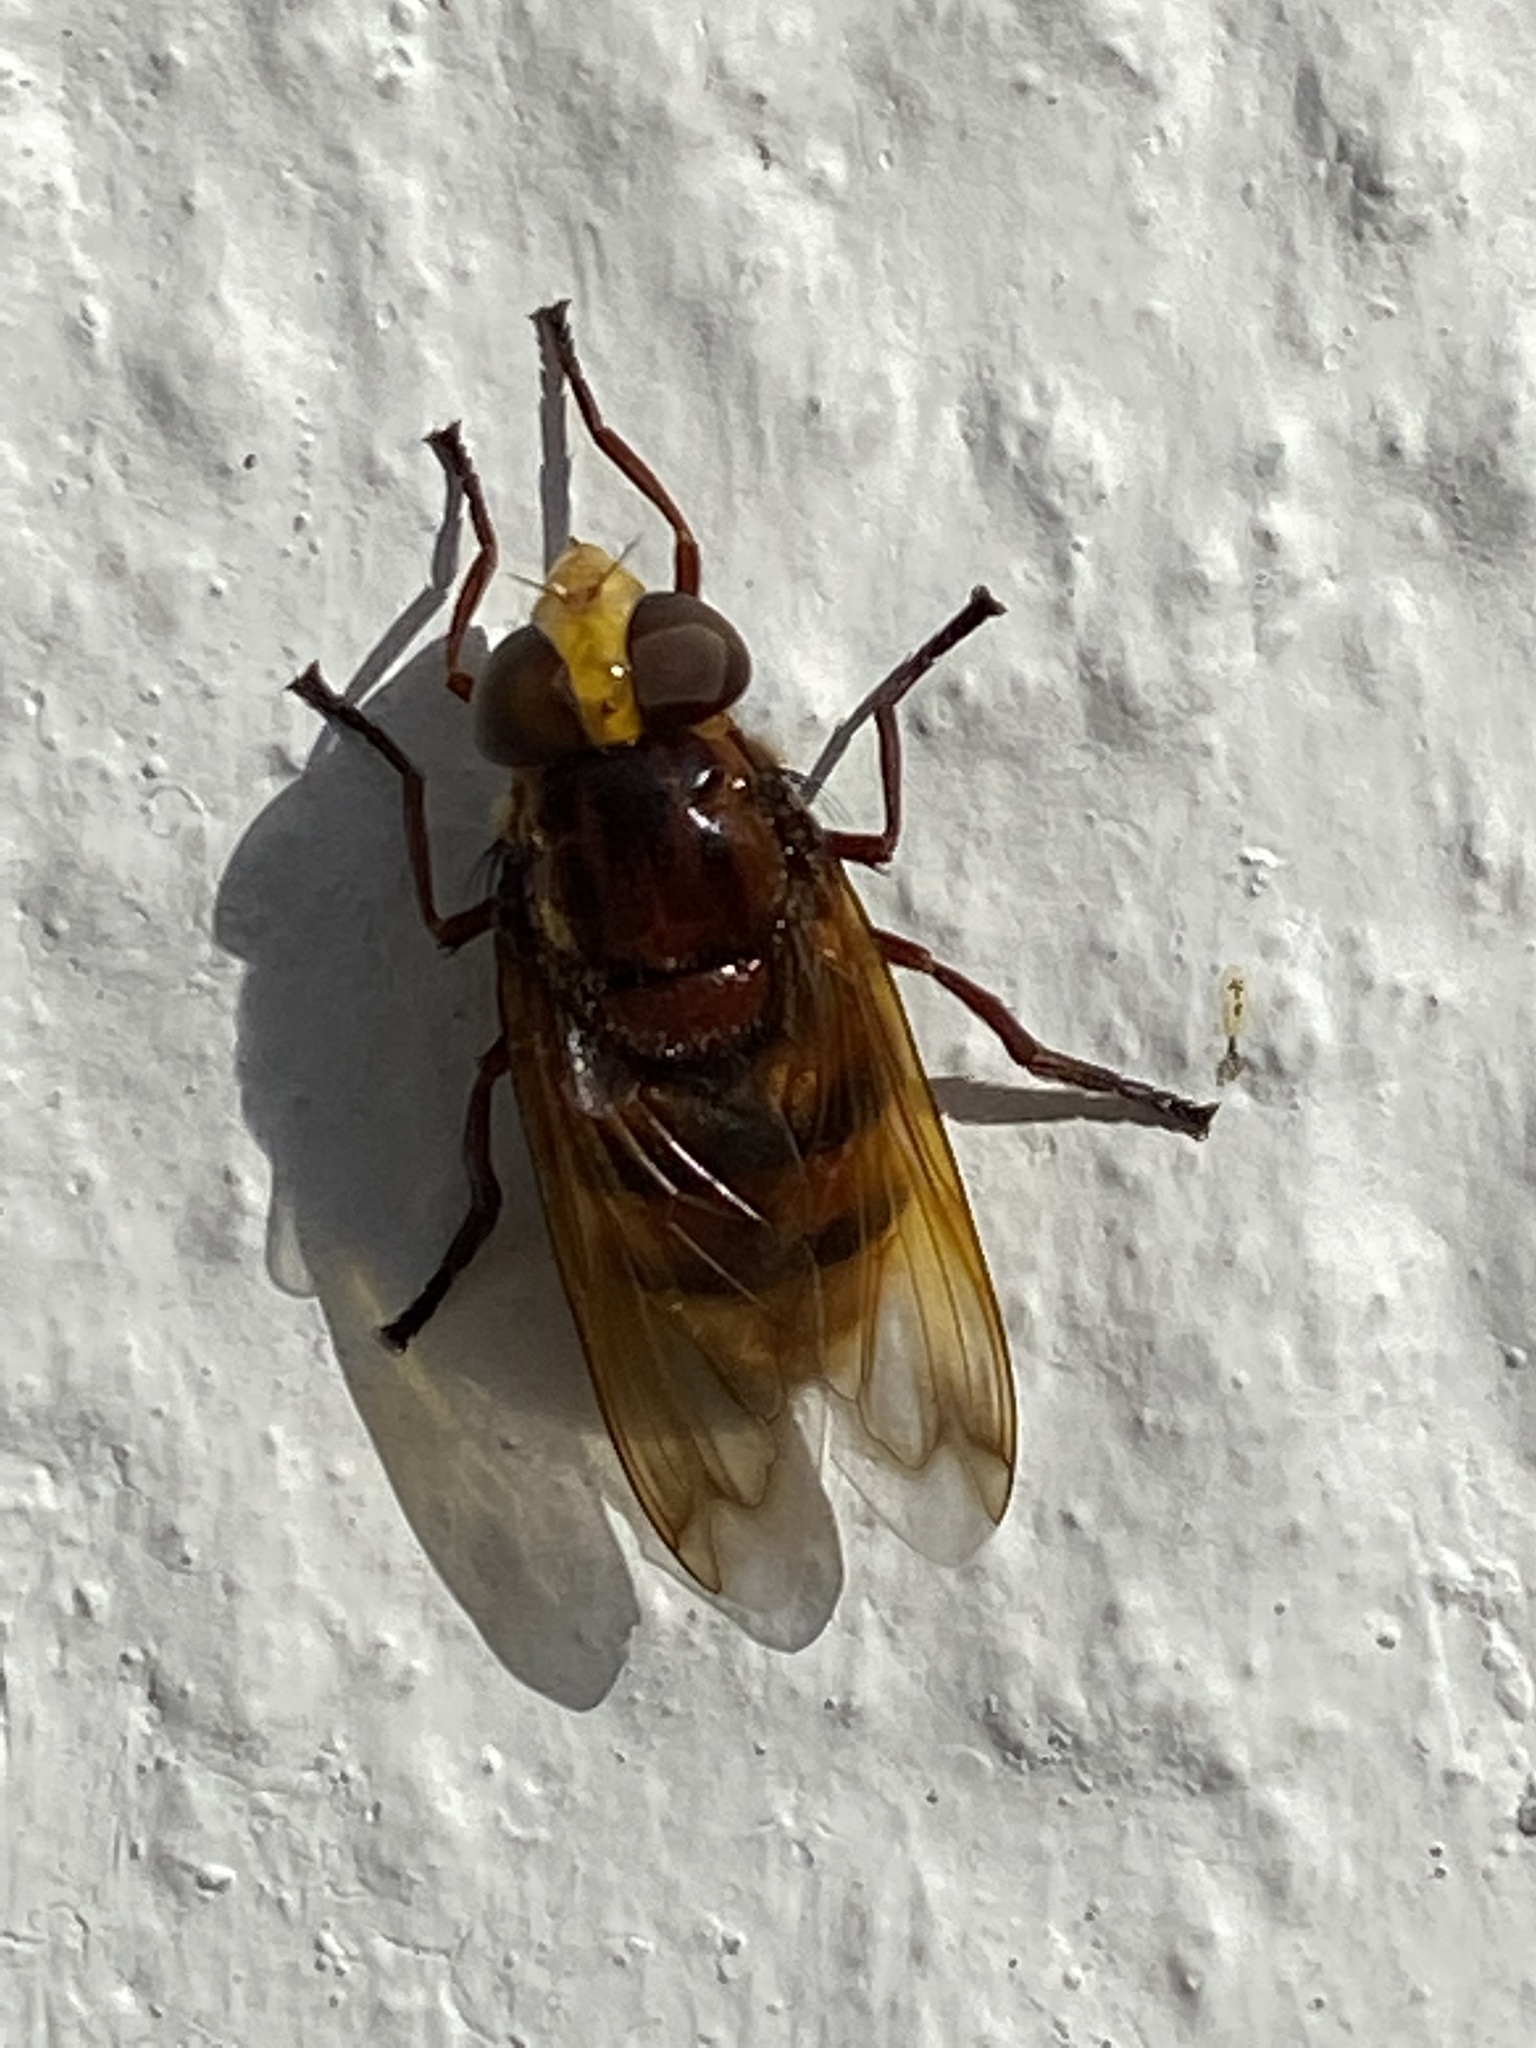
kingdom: Animalia
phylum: Arthropoda
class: Insecta
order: Diptera
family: Syrphidae
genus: Volucella
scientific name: Volucella zonaria
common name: Hornet hoverfly
